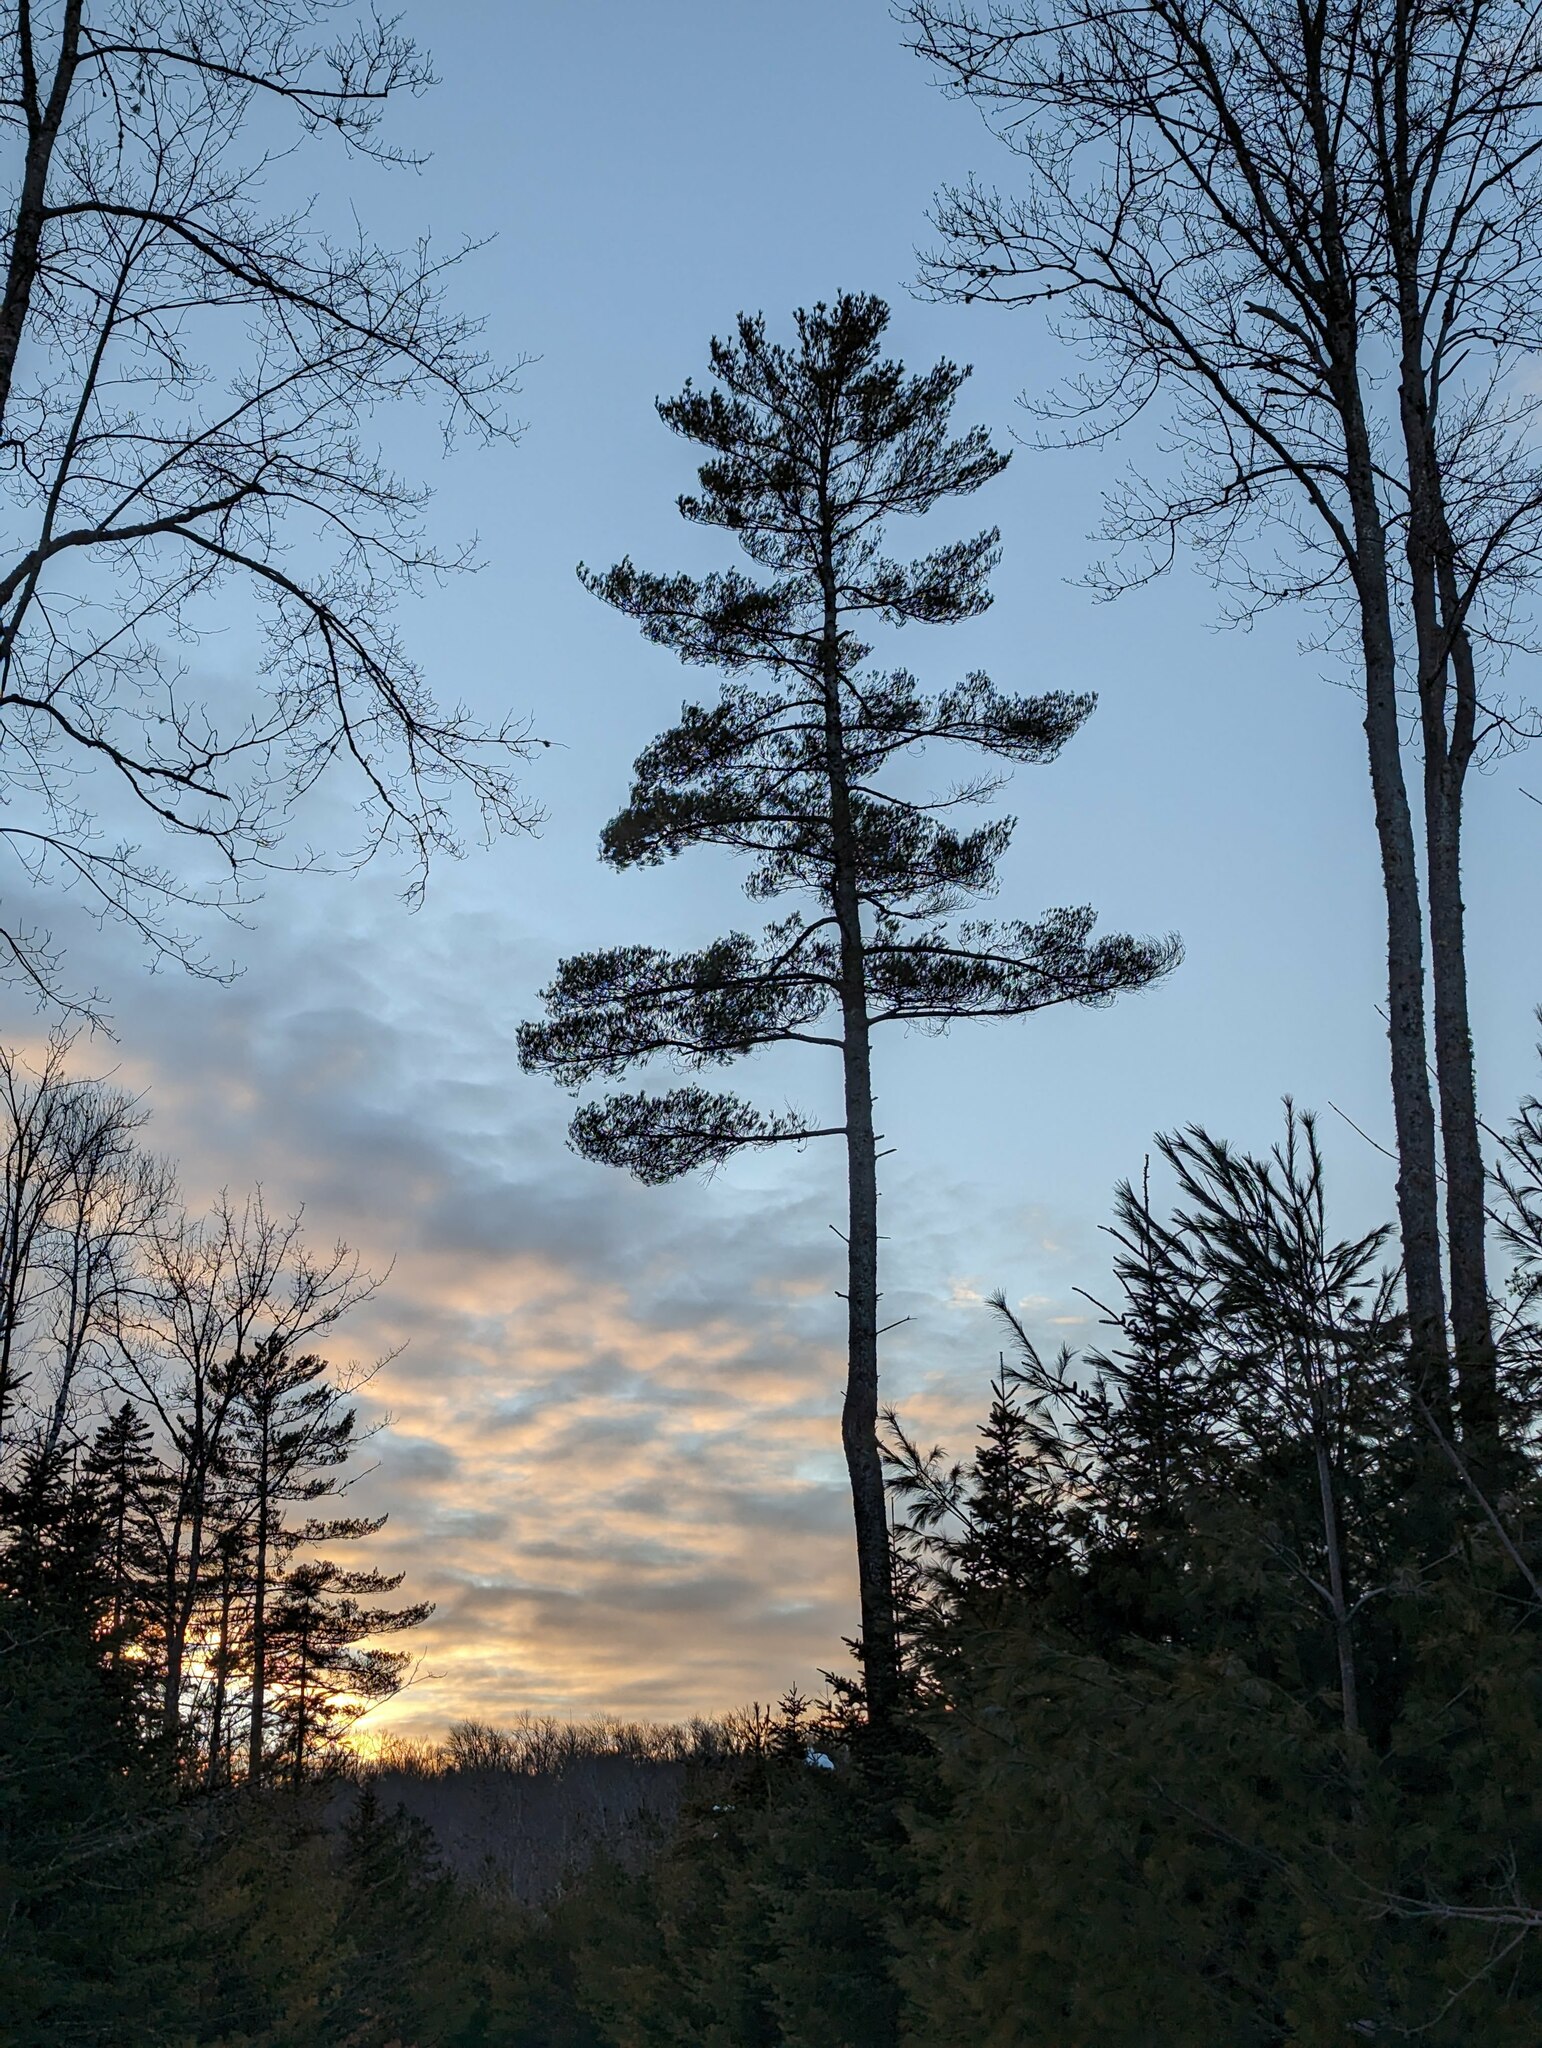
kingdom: Plantae
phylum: Tracheophyta
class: Pinopsida
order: Pinales
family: Pinaceae
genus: Pinus
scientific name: Pinus strobus
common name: Weymouth pine
